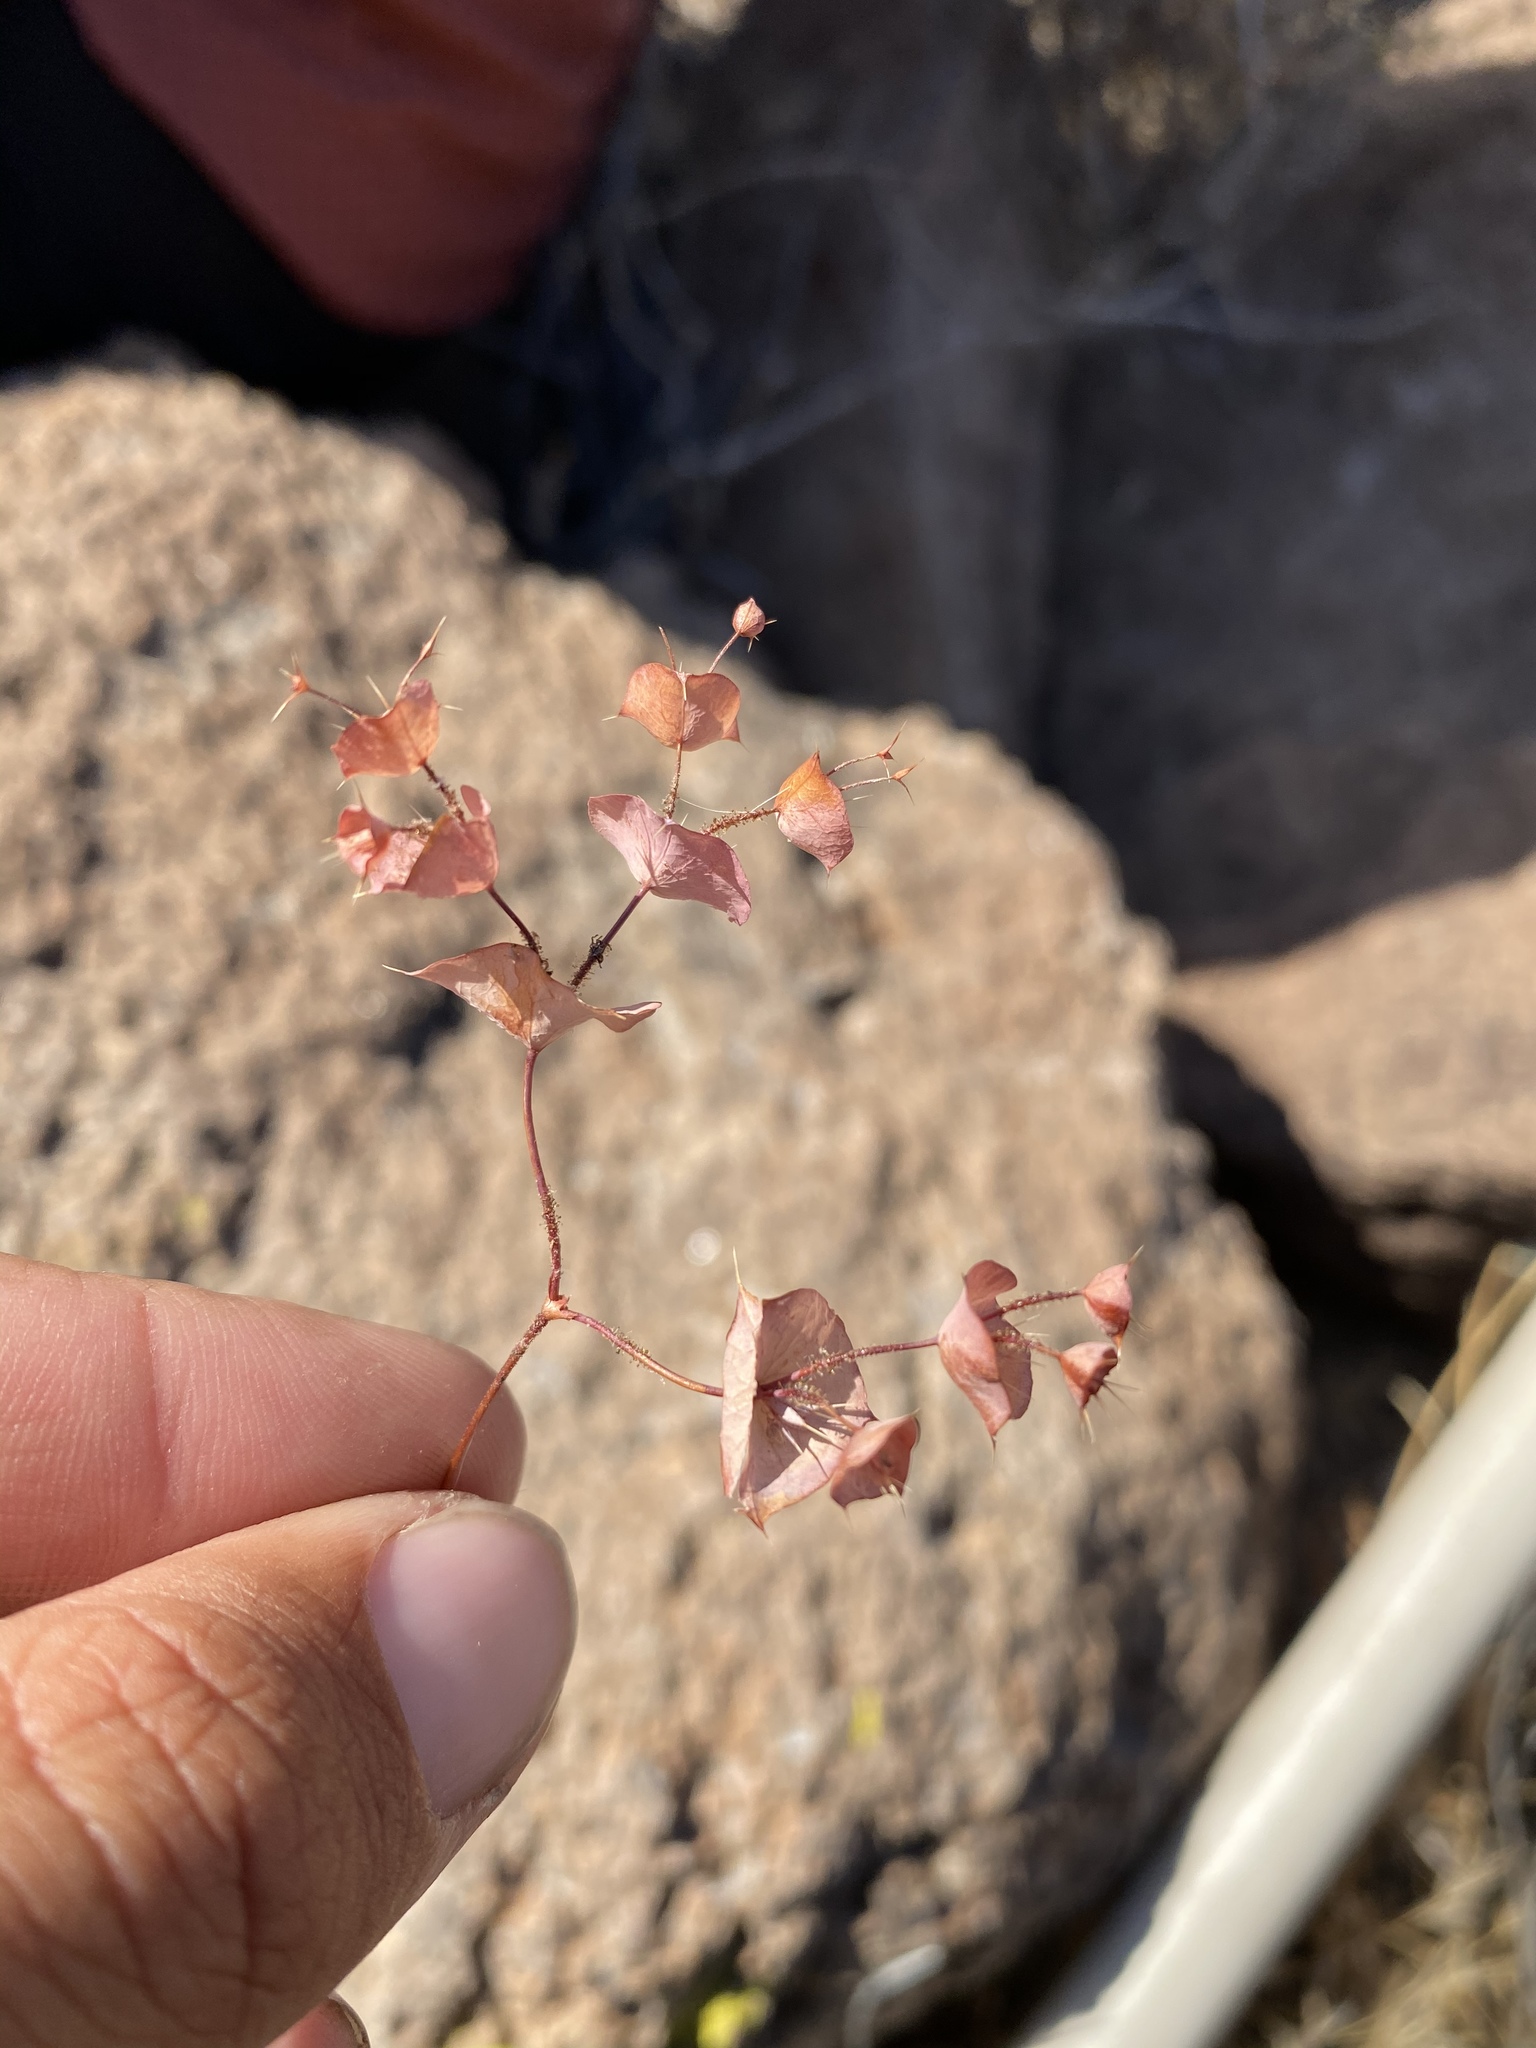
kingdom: Plantae
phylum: Tracheophyta
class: Magnoliopsida
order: Caryophyllales
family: Polygonaceae
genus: Oxytheca
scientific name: Oxytheca perfoliata
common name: Round-leaf puncturebract
